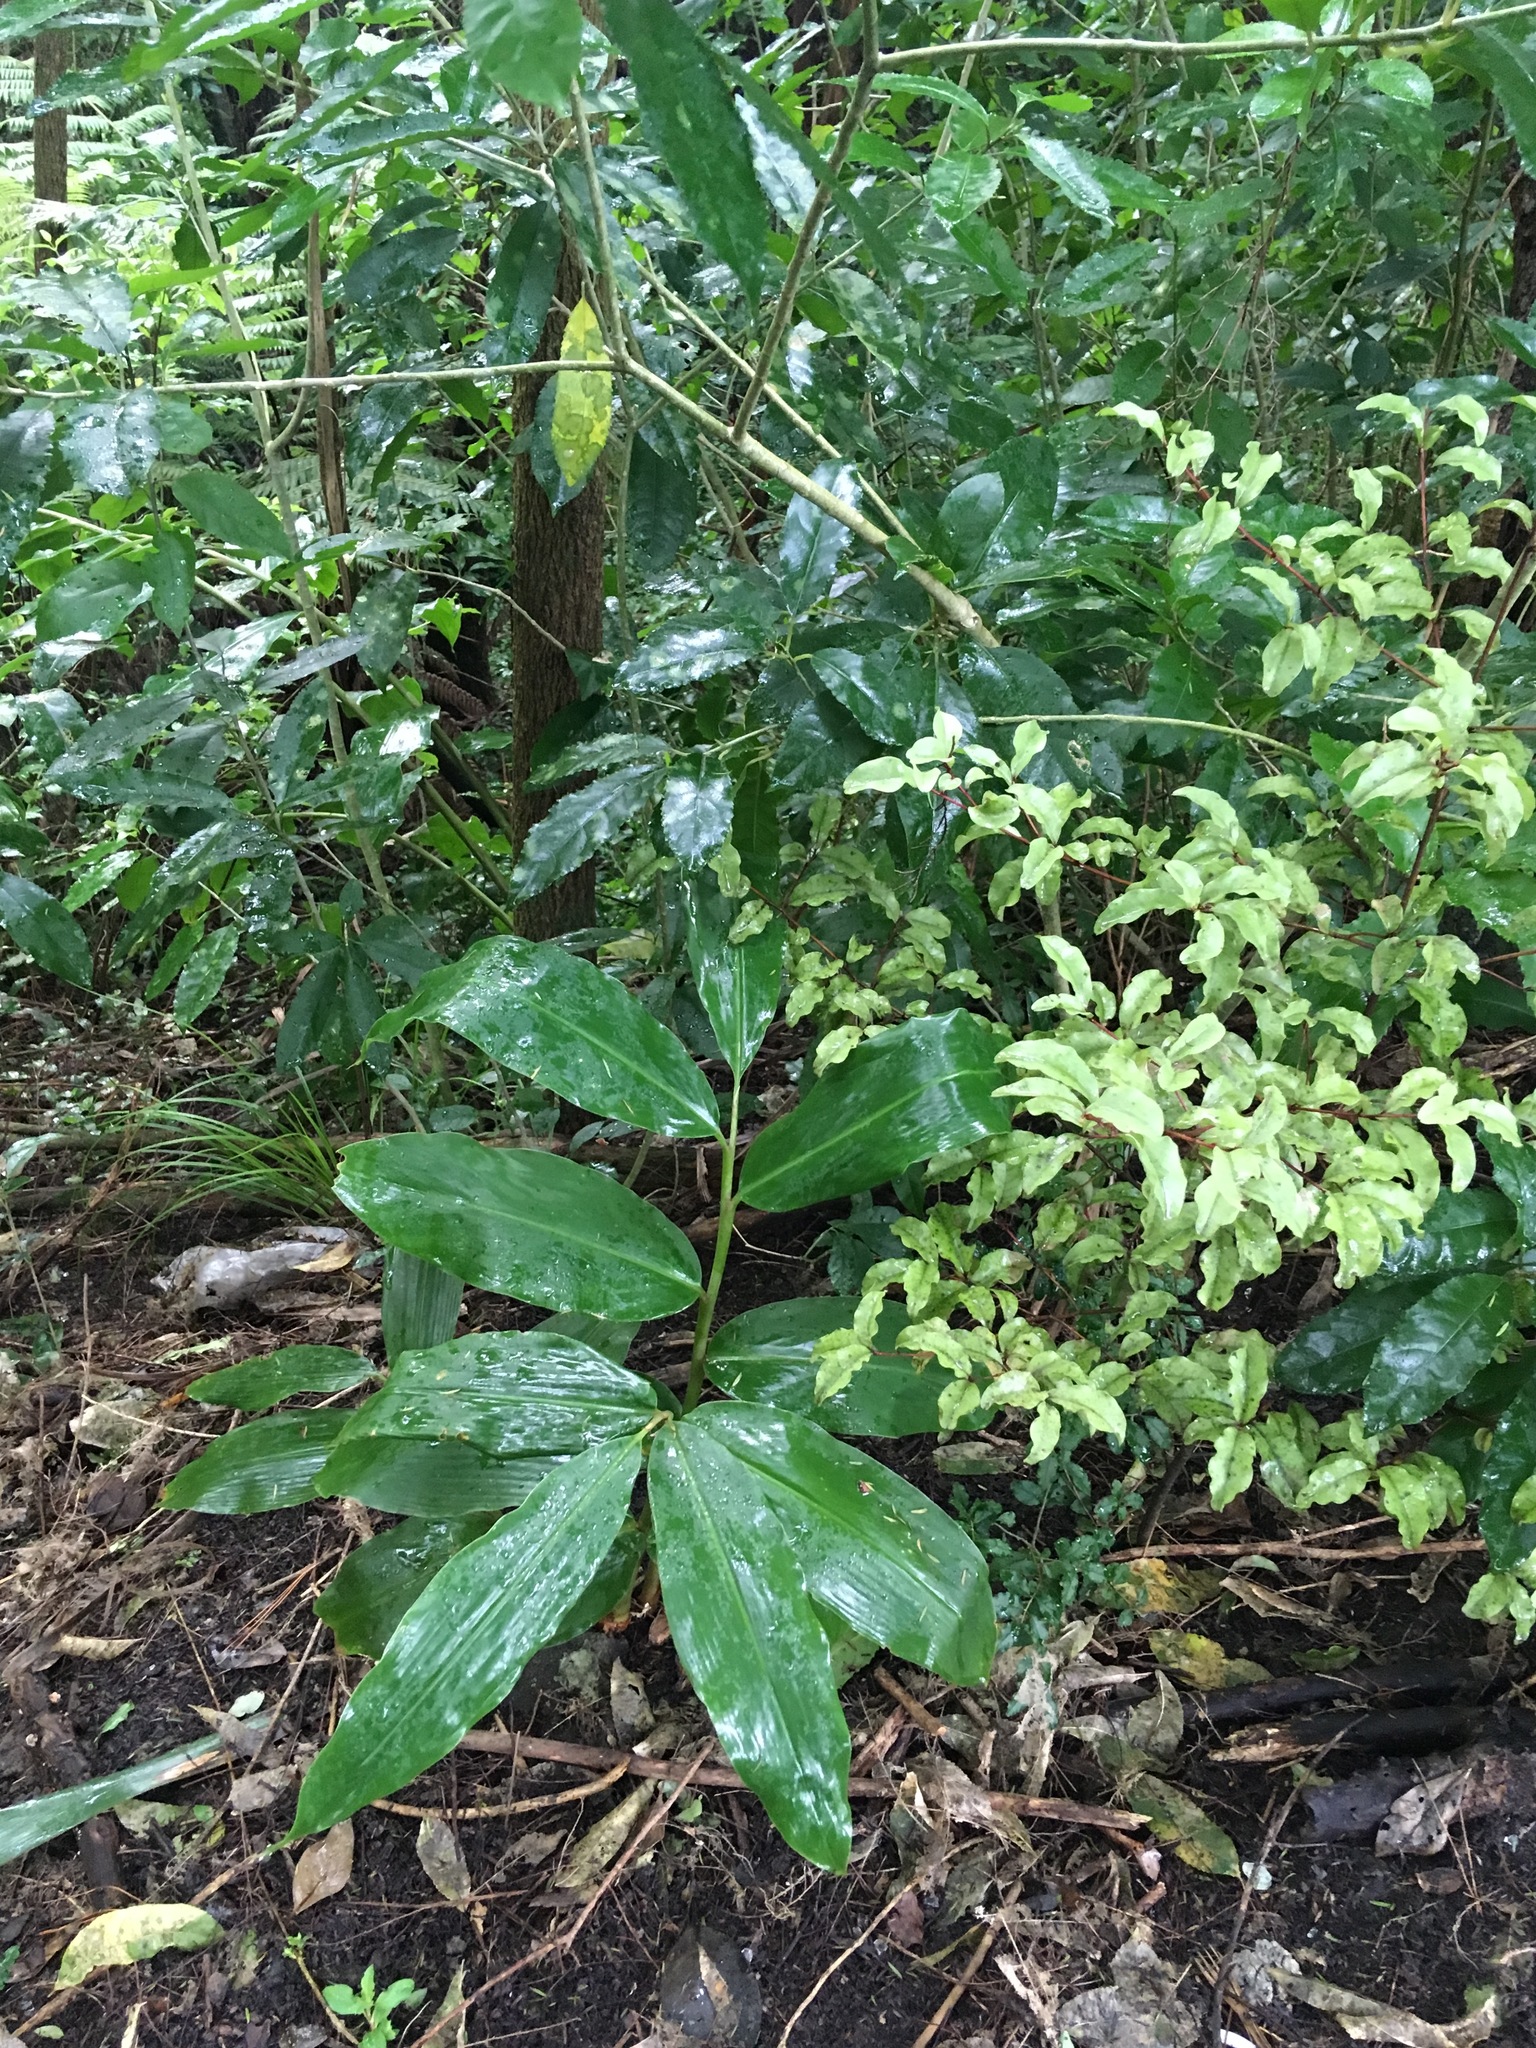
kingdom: Plantae
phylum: Tracheophyta
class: Liliopsida
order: Zingiberales
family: Zingiberaceae
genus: Hedychium
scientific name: Hedychium gardnerianum
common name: Himalayan ginger
